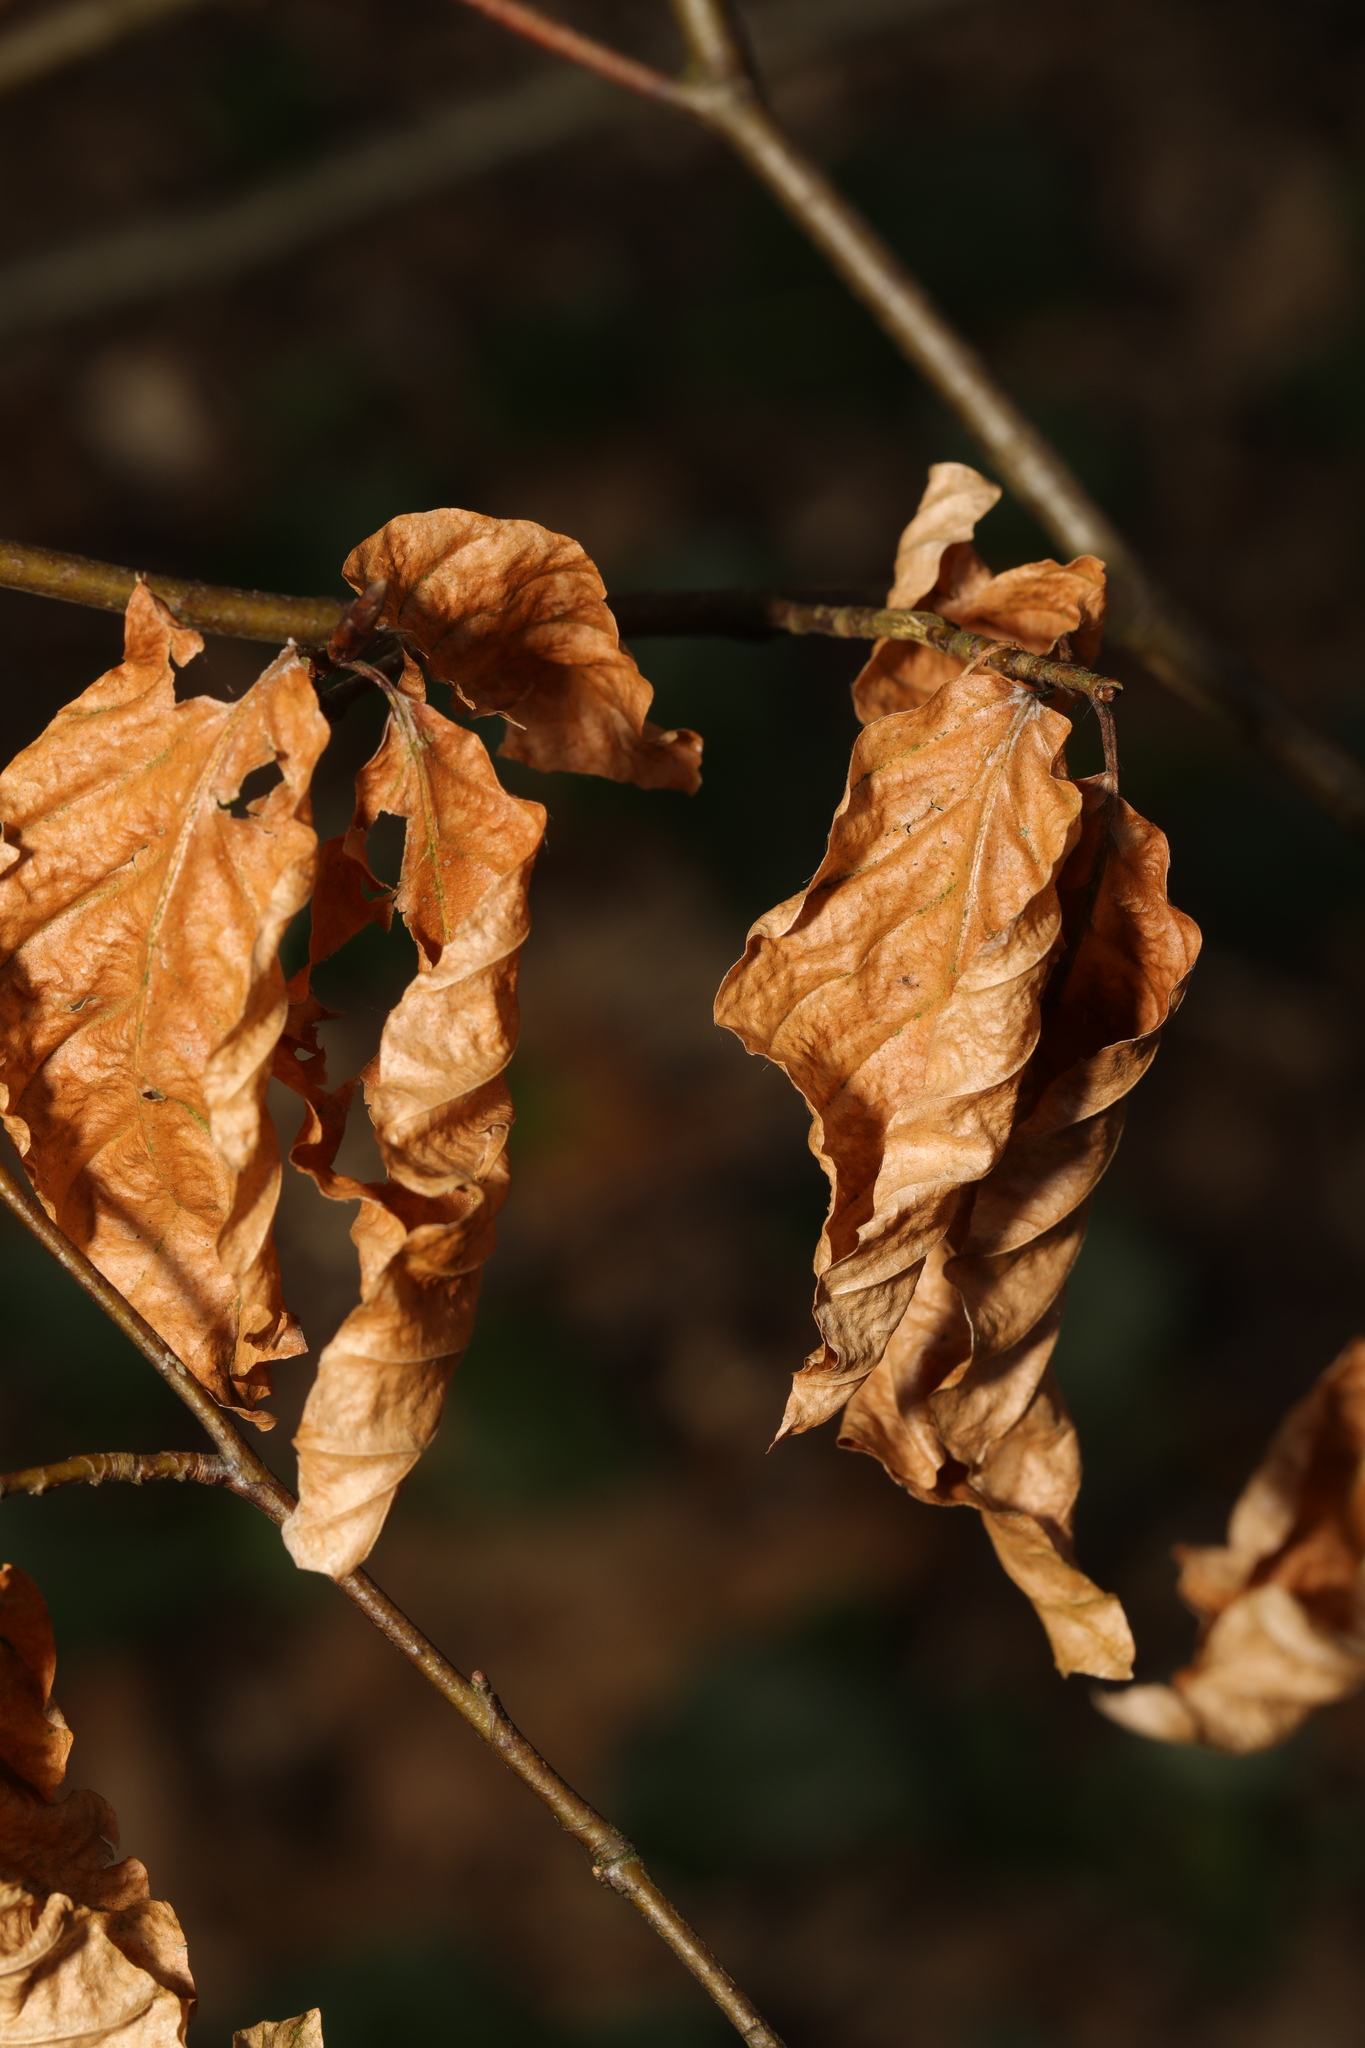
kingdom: Plantae
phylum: Tracheophyta
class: Magnoliopsida
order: Fagales
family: Fagaceae
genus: Fagus
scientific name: Fagus sylvatica
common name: Beech
